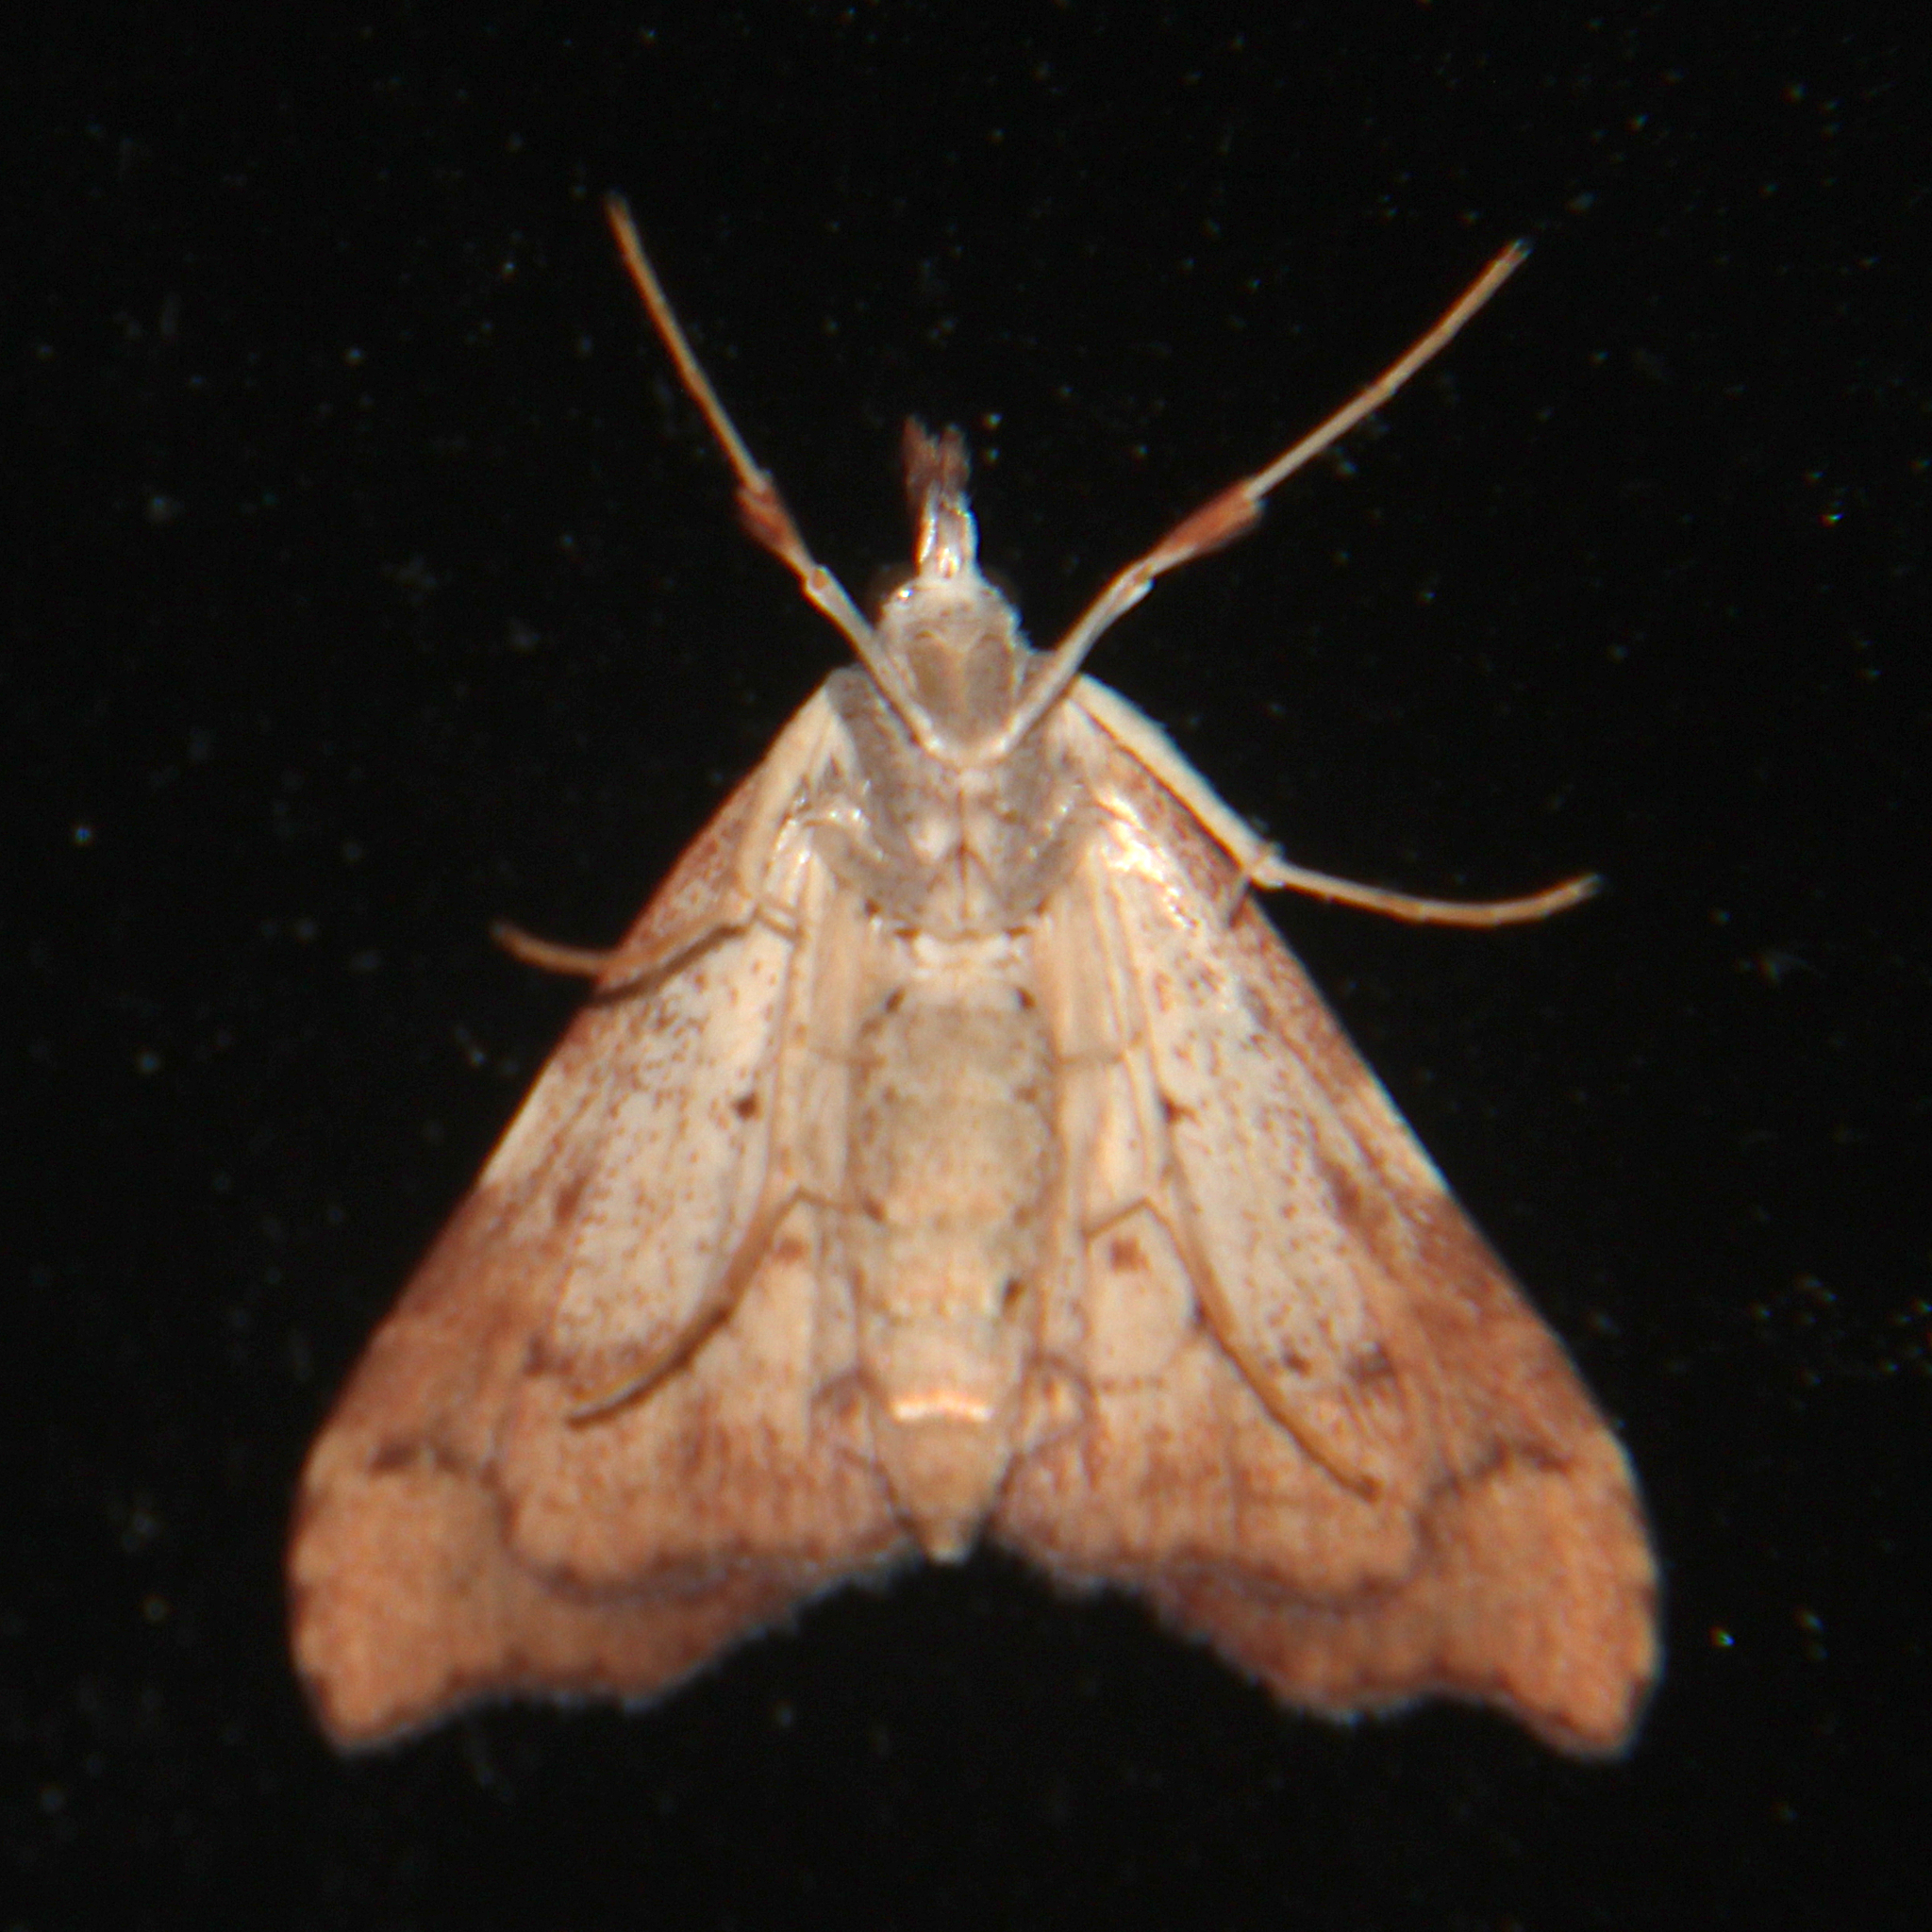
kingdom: Animalia
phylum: Arthropoda
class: Insecta
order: Lepidoptera
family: Crambidae
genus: Deana
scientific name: Deana hybreasalis
